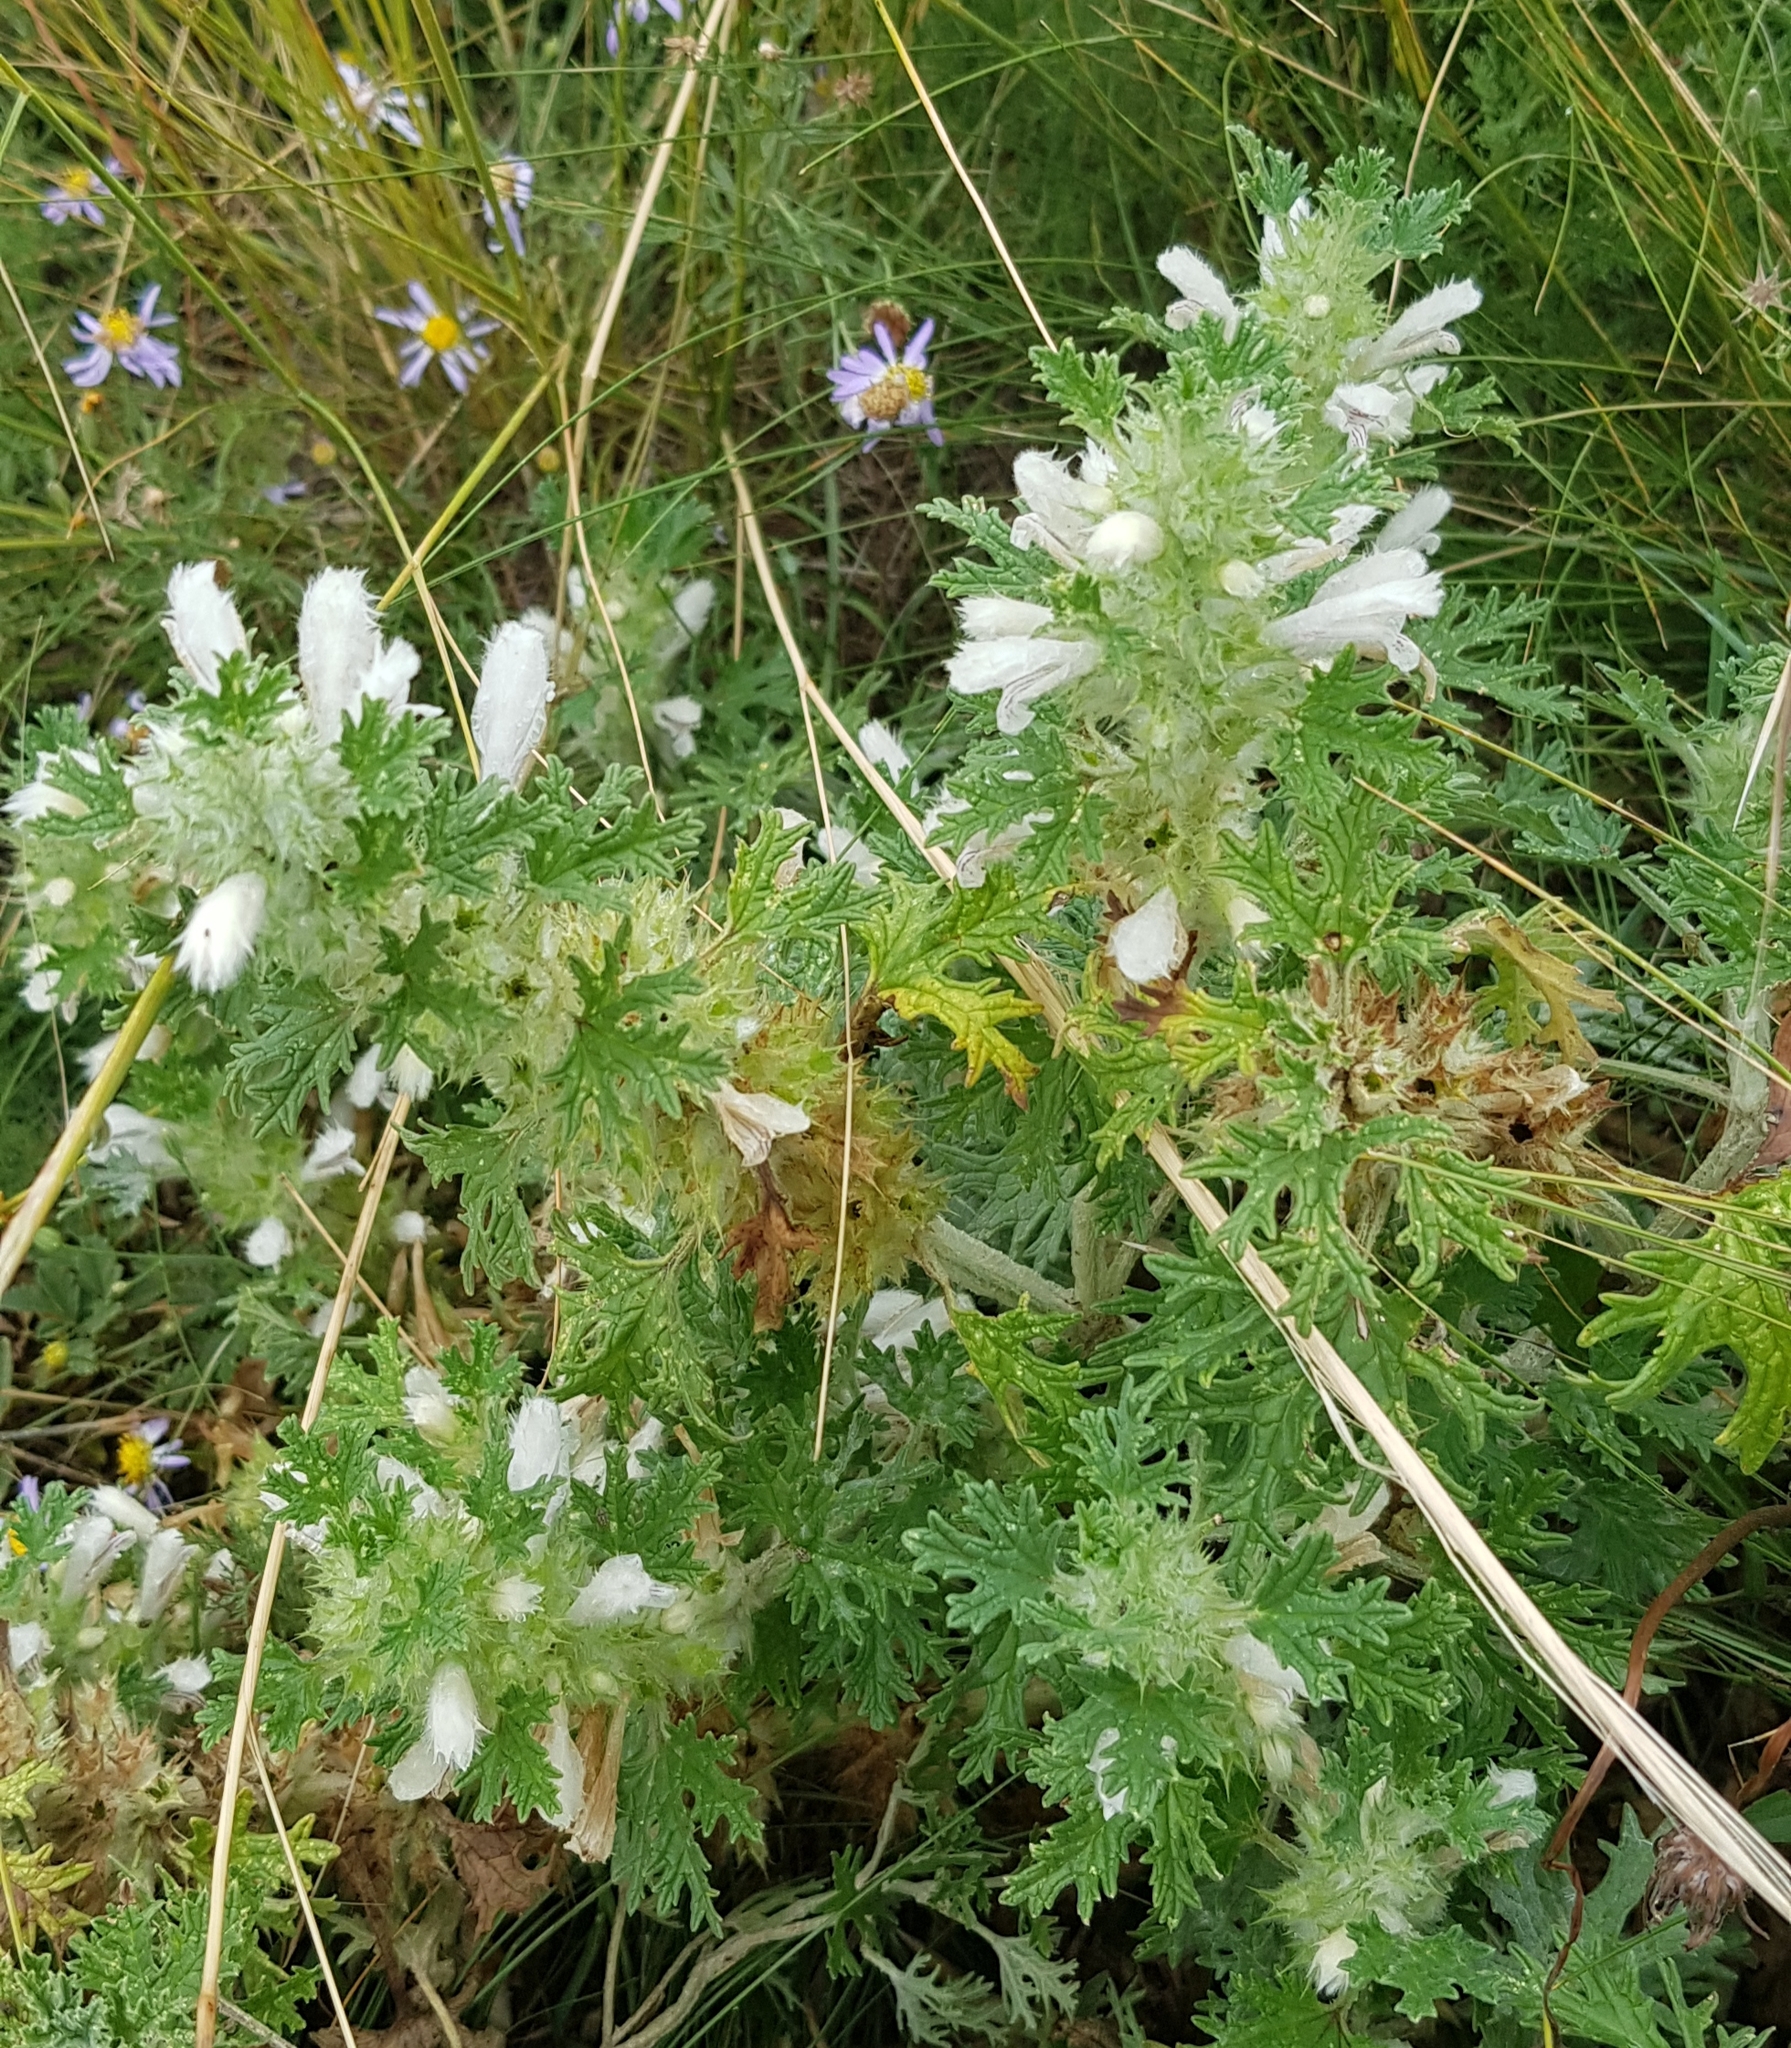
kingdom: Plantae
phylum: Tracheophyta
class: Magnoliopsida
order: Lamiales
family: Lamiaceae
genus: Panzerina
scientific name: Panzerina lanata
